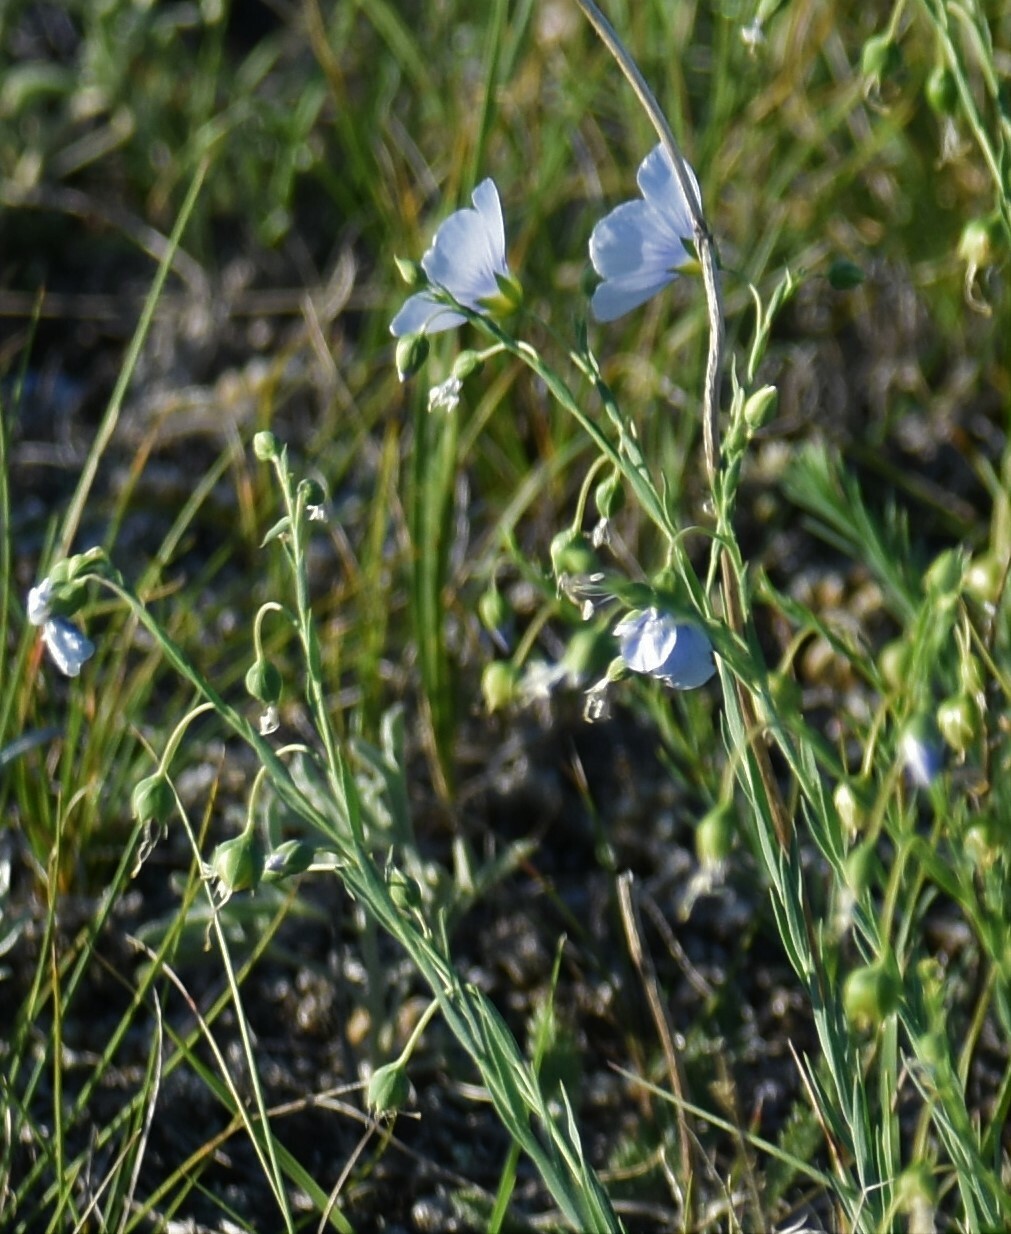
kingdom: Plantae
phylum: Tracheophyta
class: Magnoliopsida
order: Malpighiales
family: Linaceae
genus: Linum
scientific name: Linum lewisii
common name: Prairie flax
